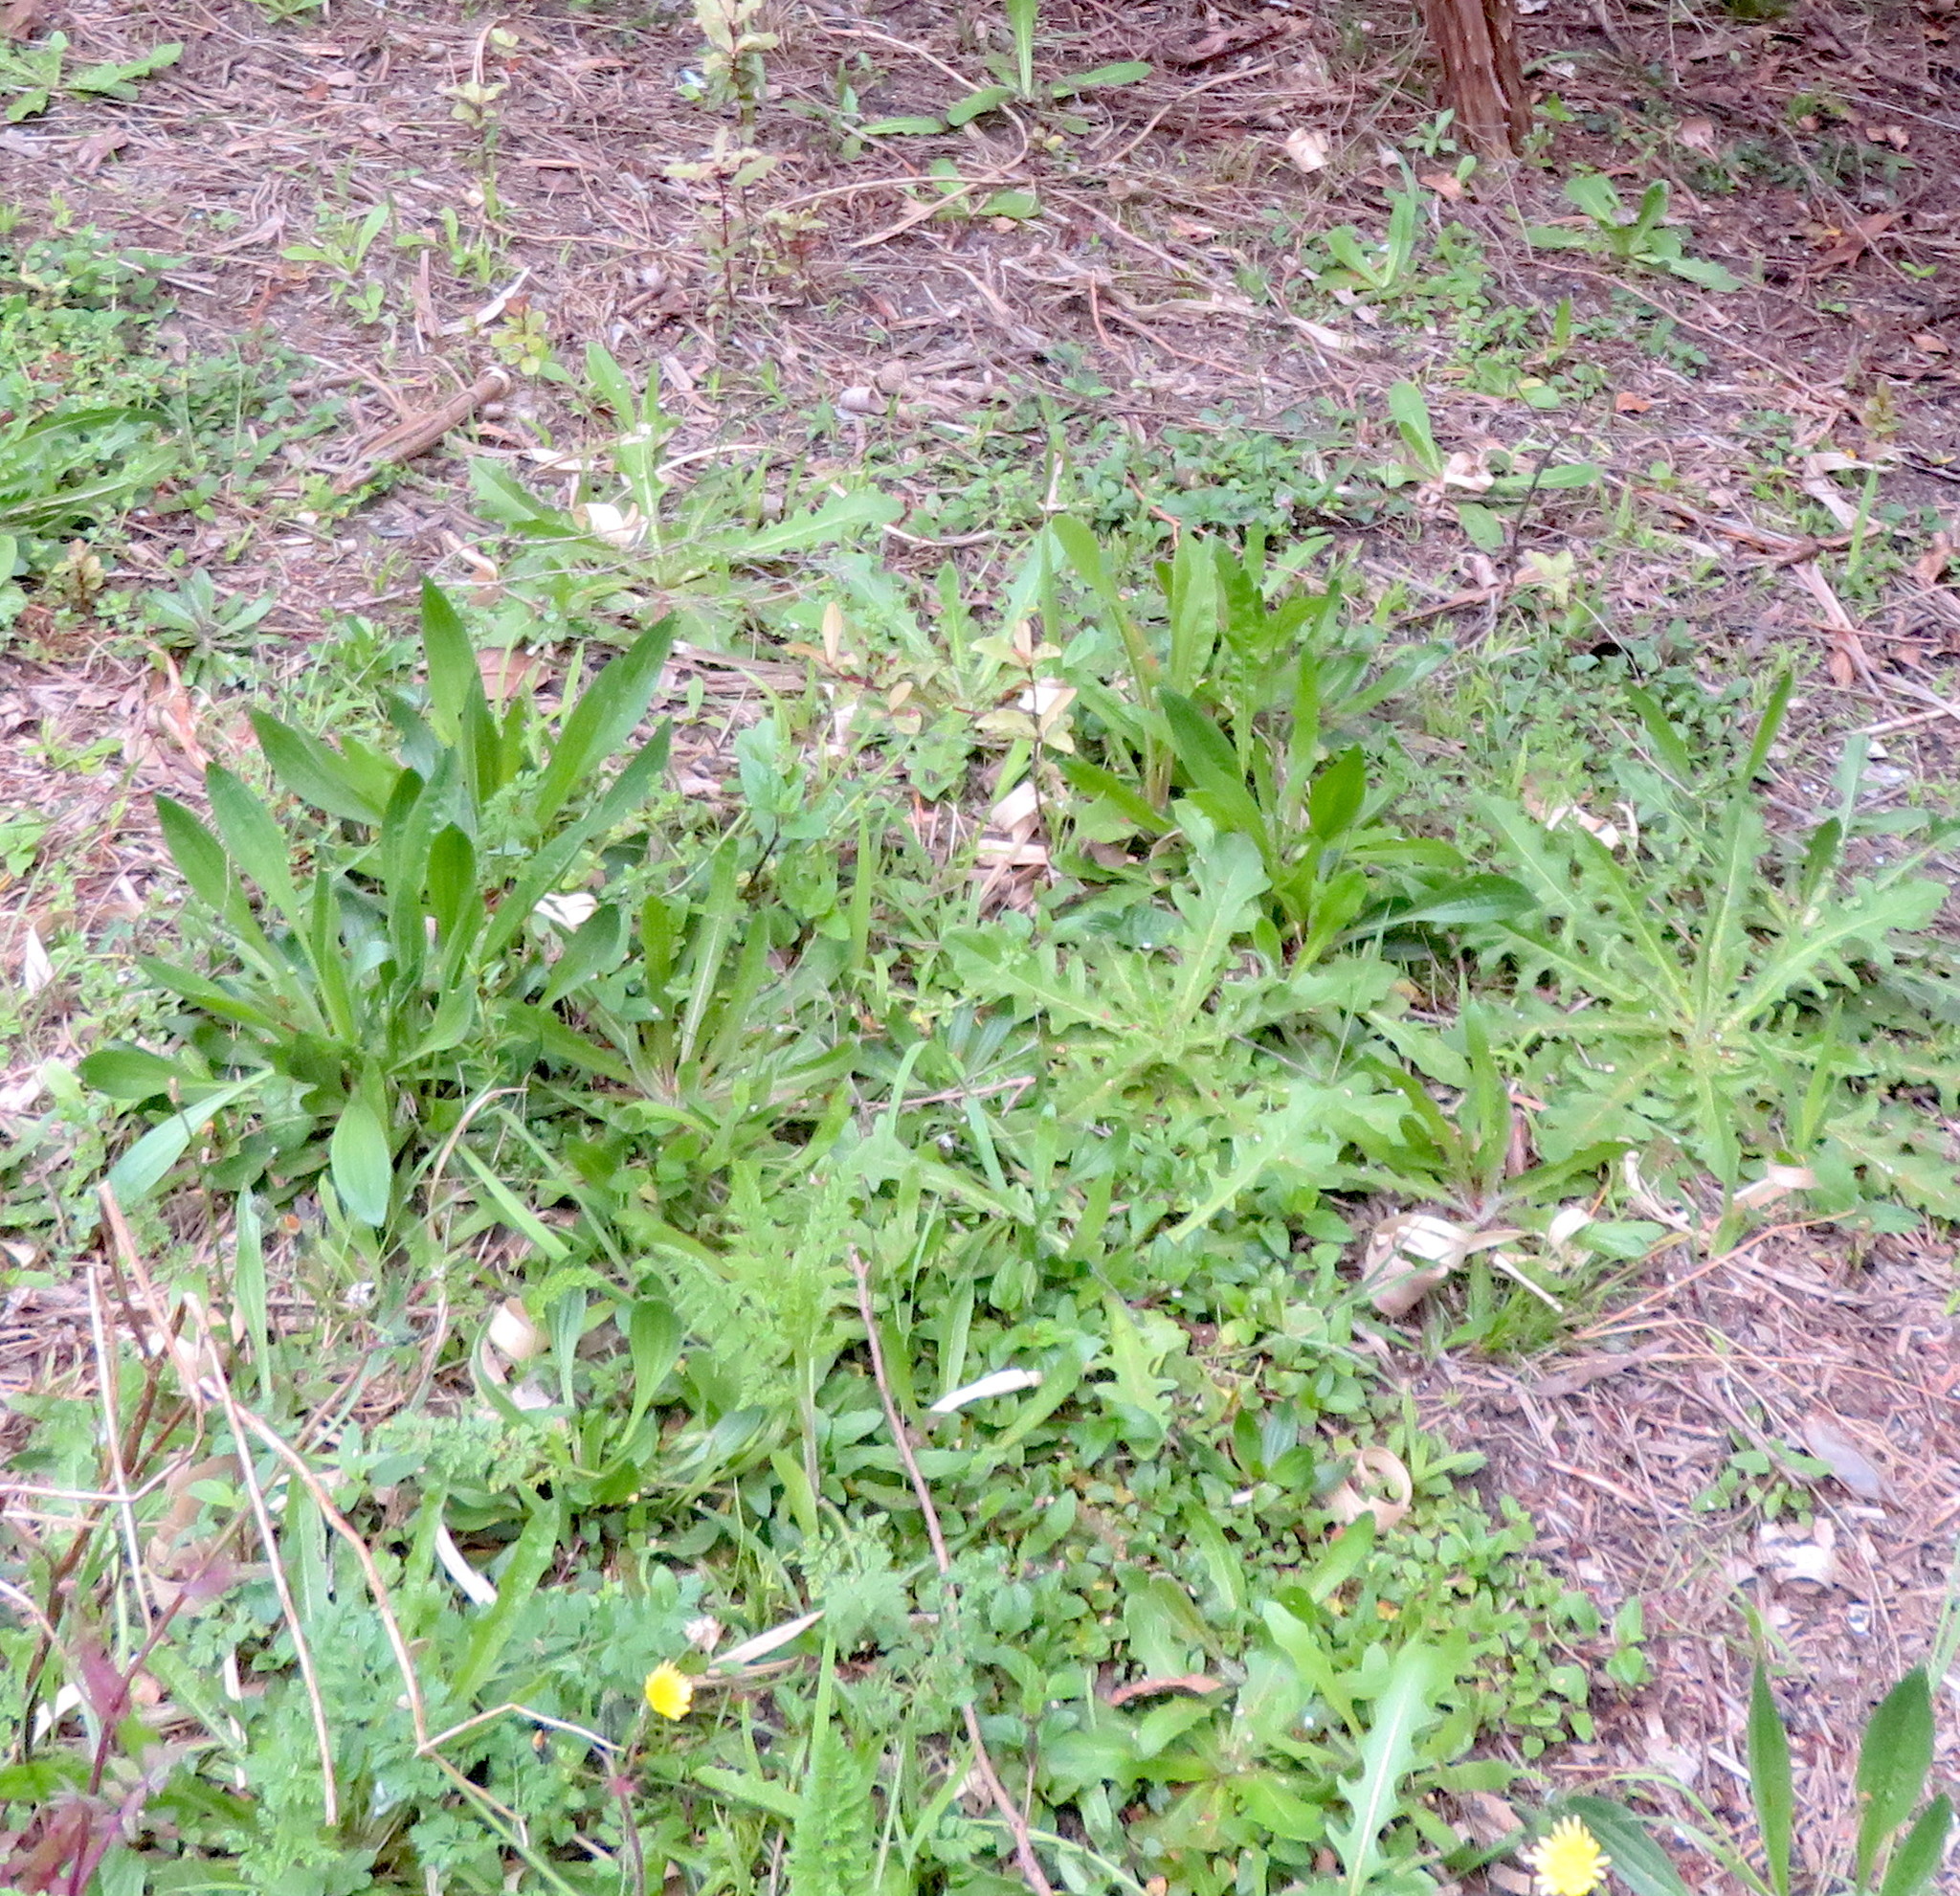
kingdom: Plantae
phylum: Tracheophyta
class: Magnoliopsida
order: Asterales
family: Asteraceae
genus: Hypochaeris
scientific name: Hypochaeris radicata
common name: Flatweed
